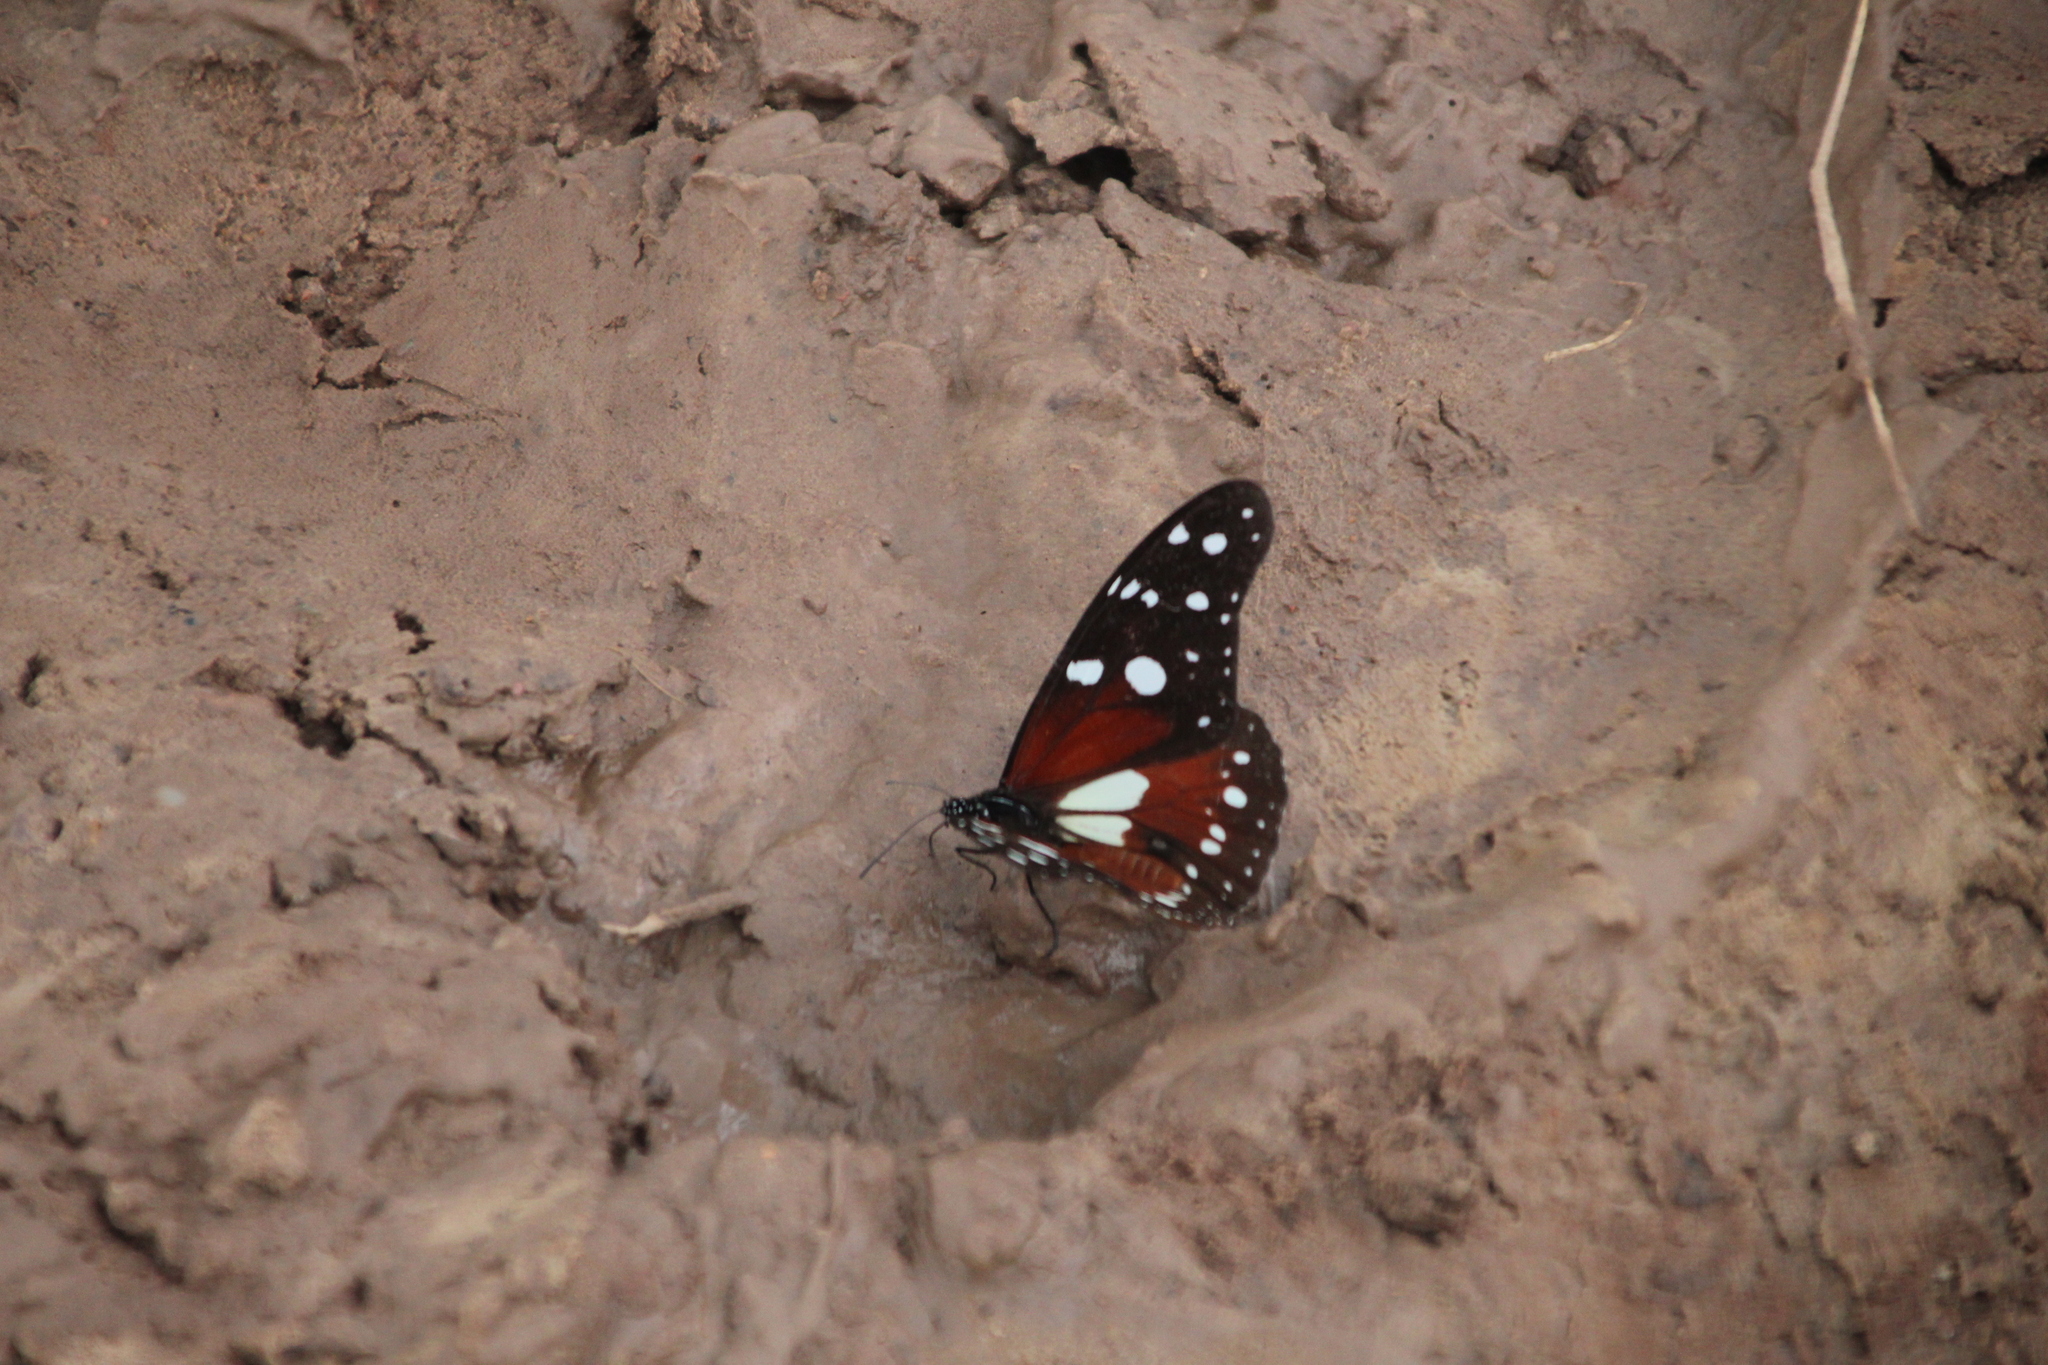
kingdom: Animalia
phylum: Arthropoda
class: Insecta
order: Lepidoptera
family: Nymphalidae
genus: Tirumala
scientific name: Tirumala formosa
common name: Beautiful monarch
